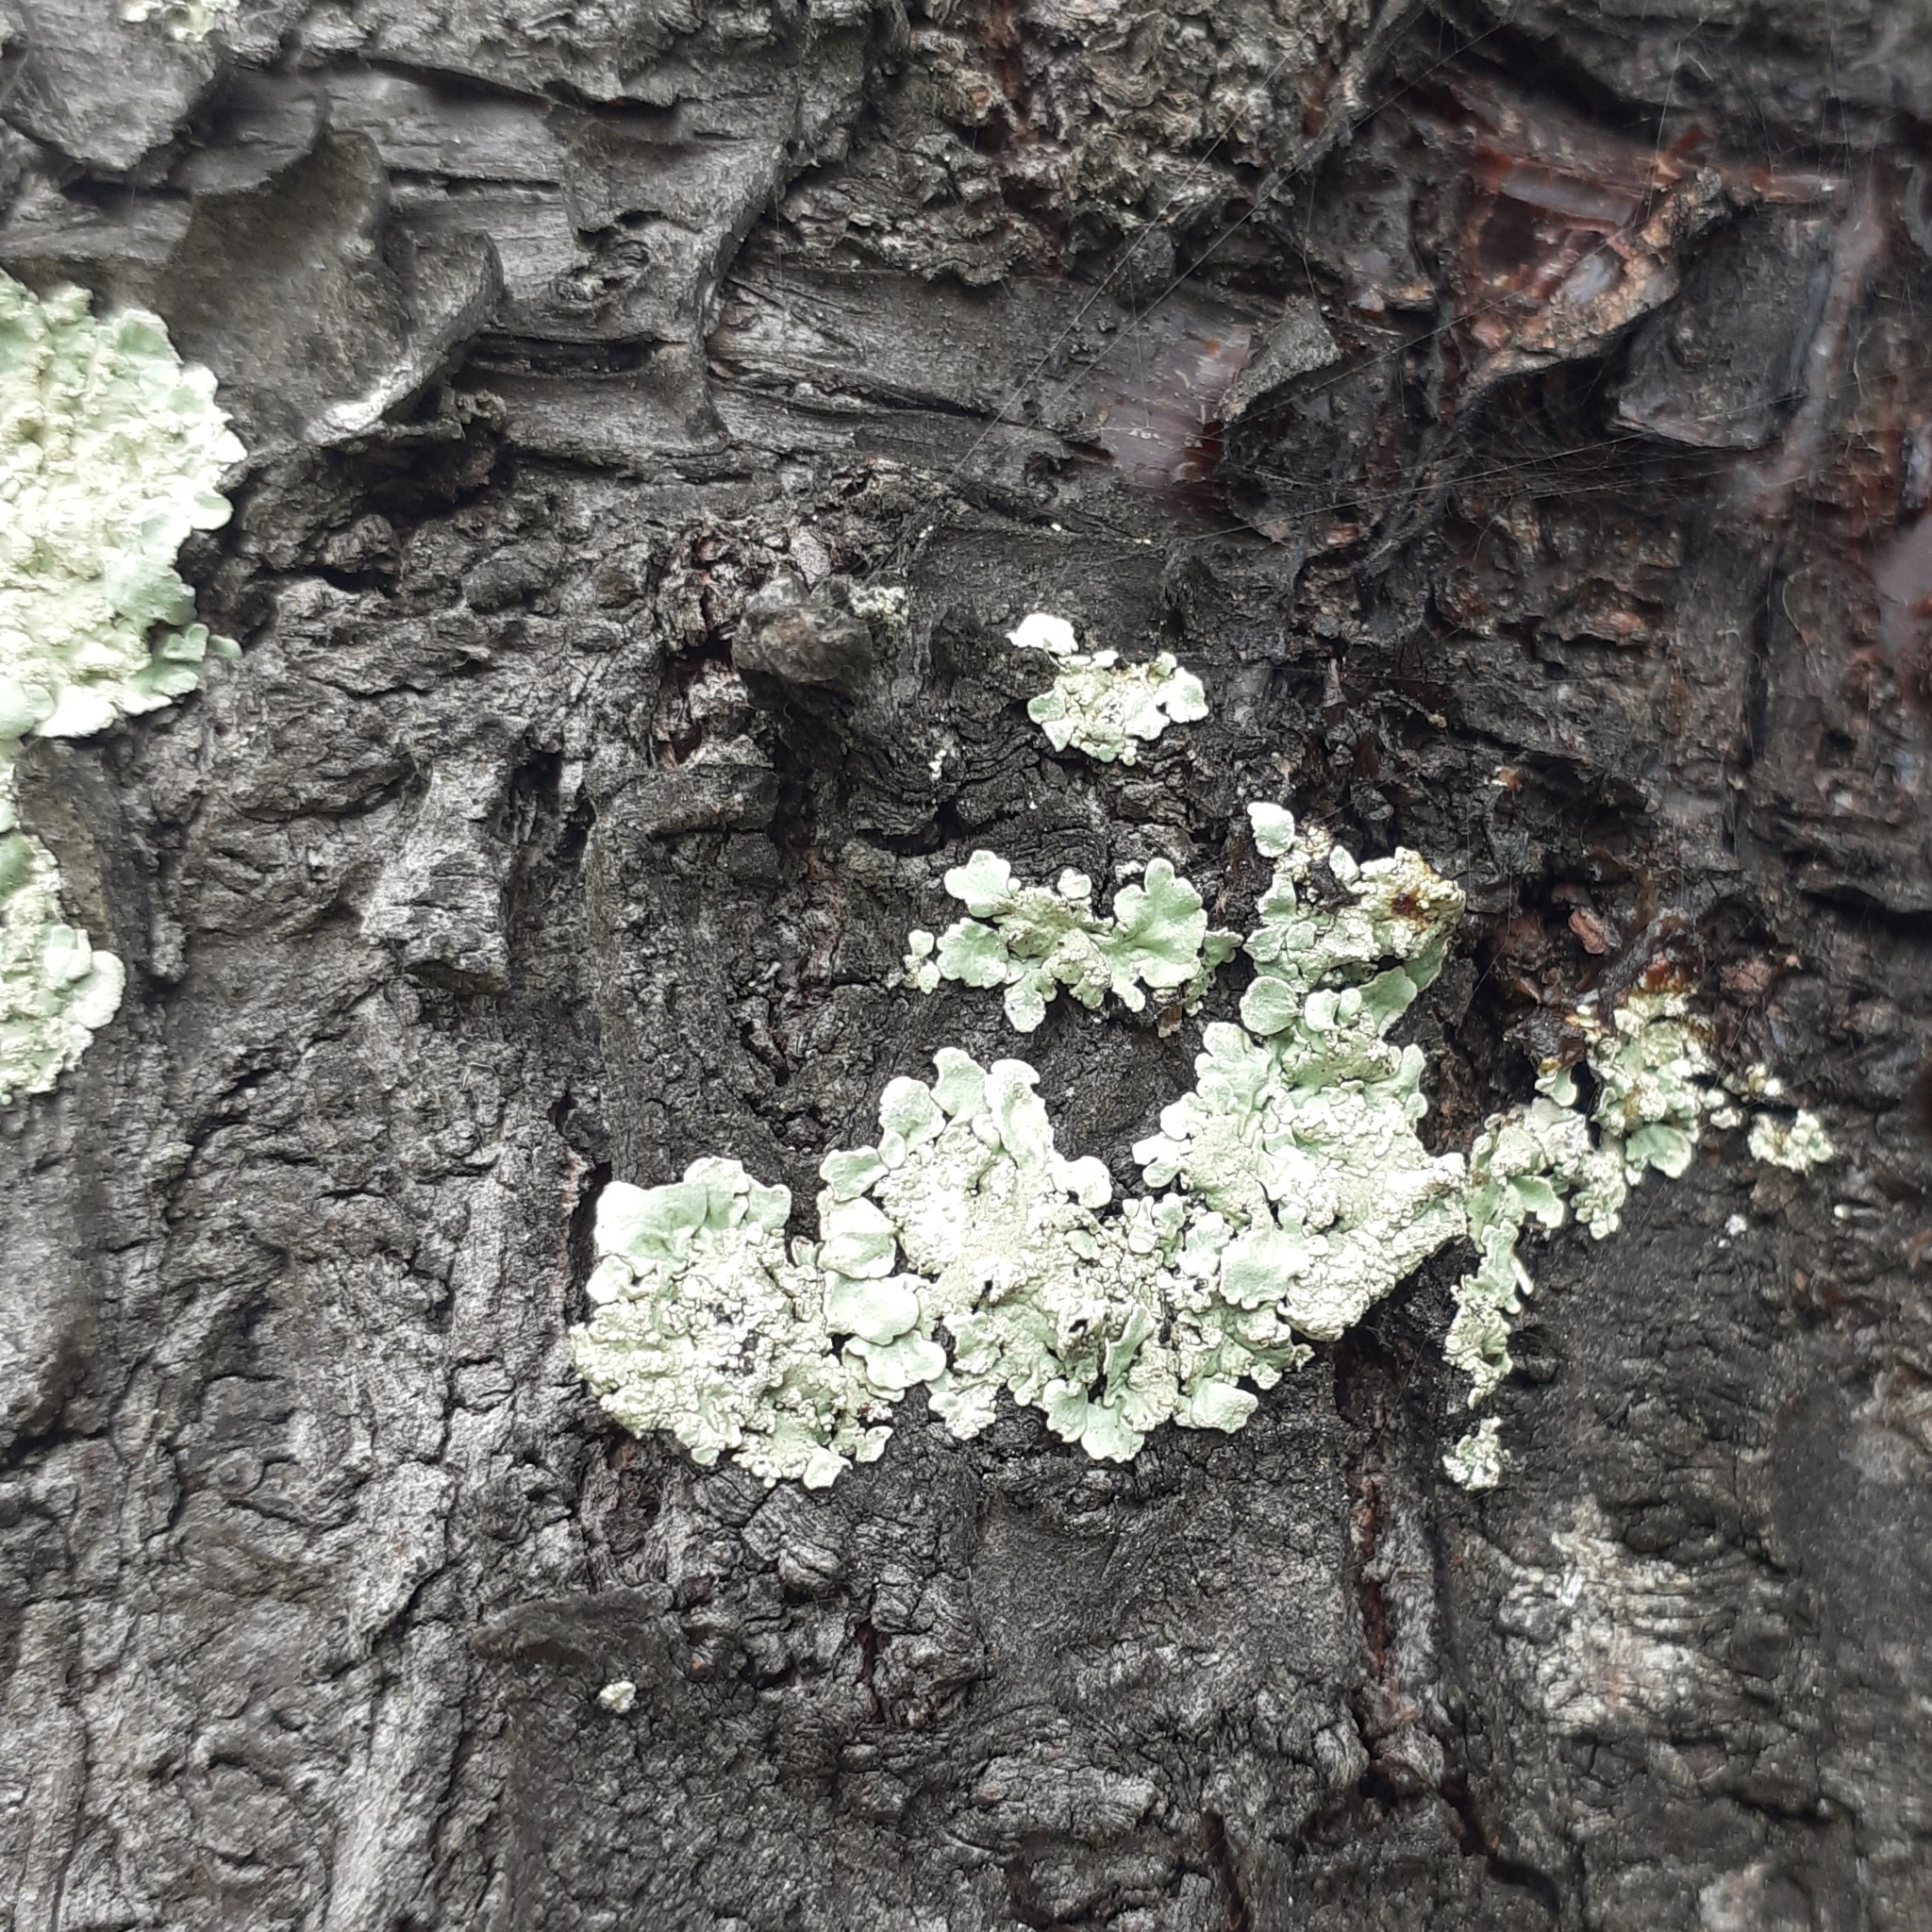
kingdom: Fungi
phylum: Ascomycota
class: Lecanoromycetes
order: Lecanorales
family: Parmeliaceae
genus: Flavoparmelia
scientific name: Flavoparmelia caperata
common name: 40-mile per hour lichen
